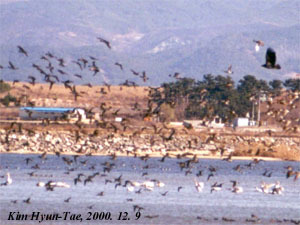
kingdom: Animalia
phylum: Chordata
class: Aves
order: Accipitriformes
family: Accipitridae
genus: Haliaeetus
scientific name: Haliaeetus albicilla
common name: White-tailed eagle
